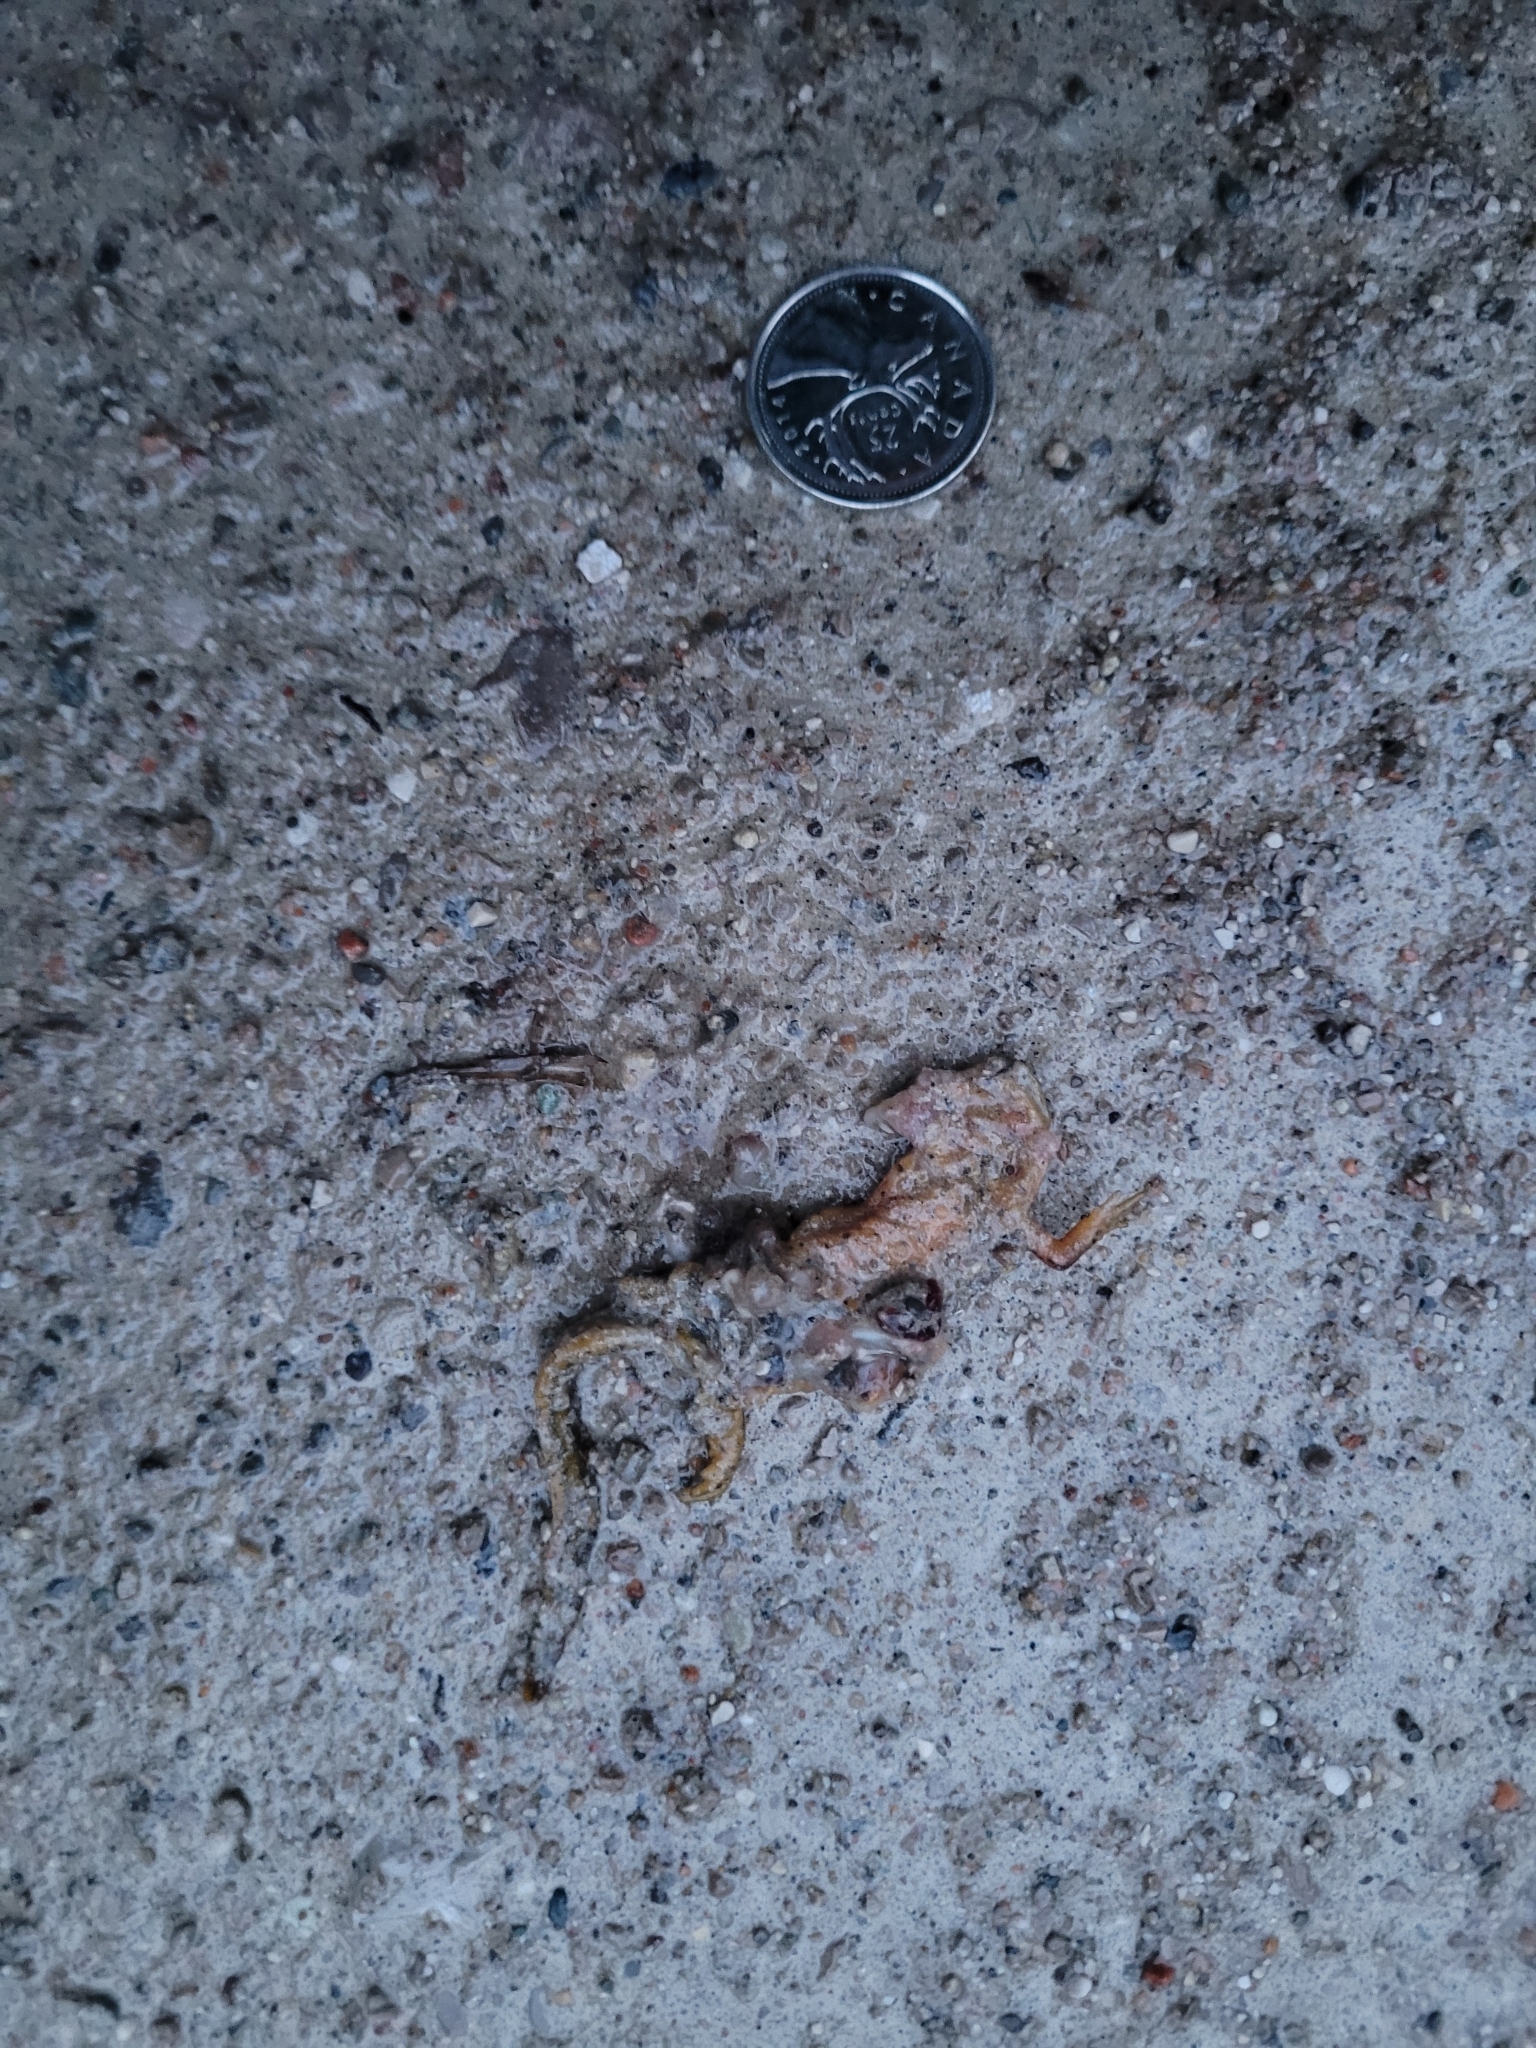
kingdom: Animalia
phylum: Chordata
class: Amphibia
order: Caudata
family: Salamandridae
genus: Notophthalmus
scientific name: Notophthalmus viridescens
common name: Eastern newt
